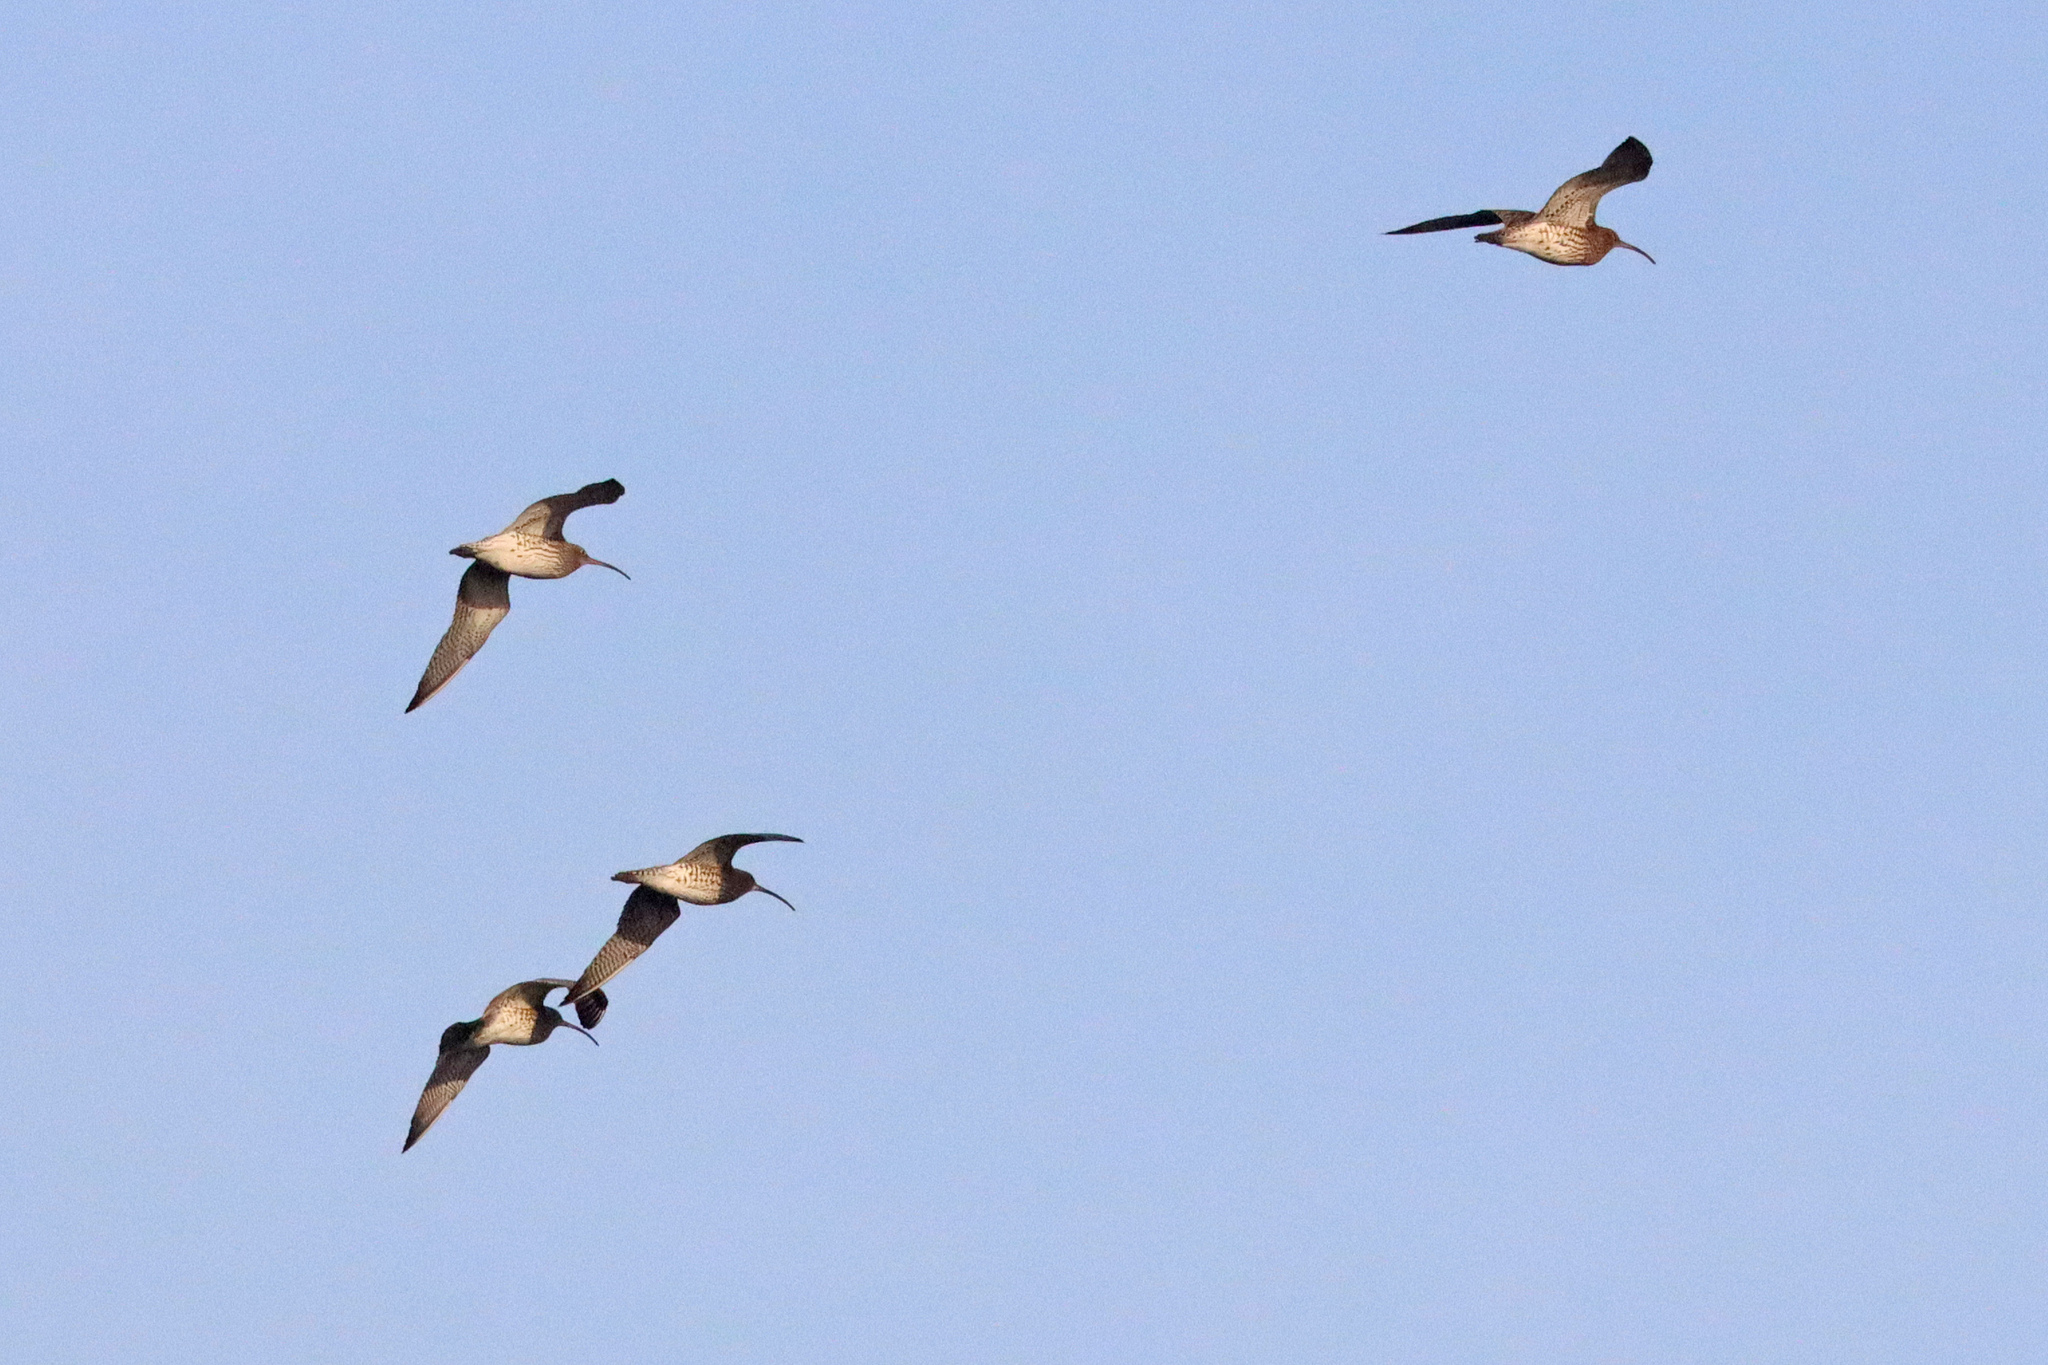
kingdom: Animalia
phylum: Chordata
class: Aves
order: Charadriiformes
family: Scolopacidae
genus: Numenius
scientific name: Numenius arquata
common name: Eurasian curlew
